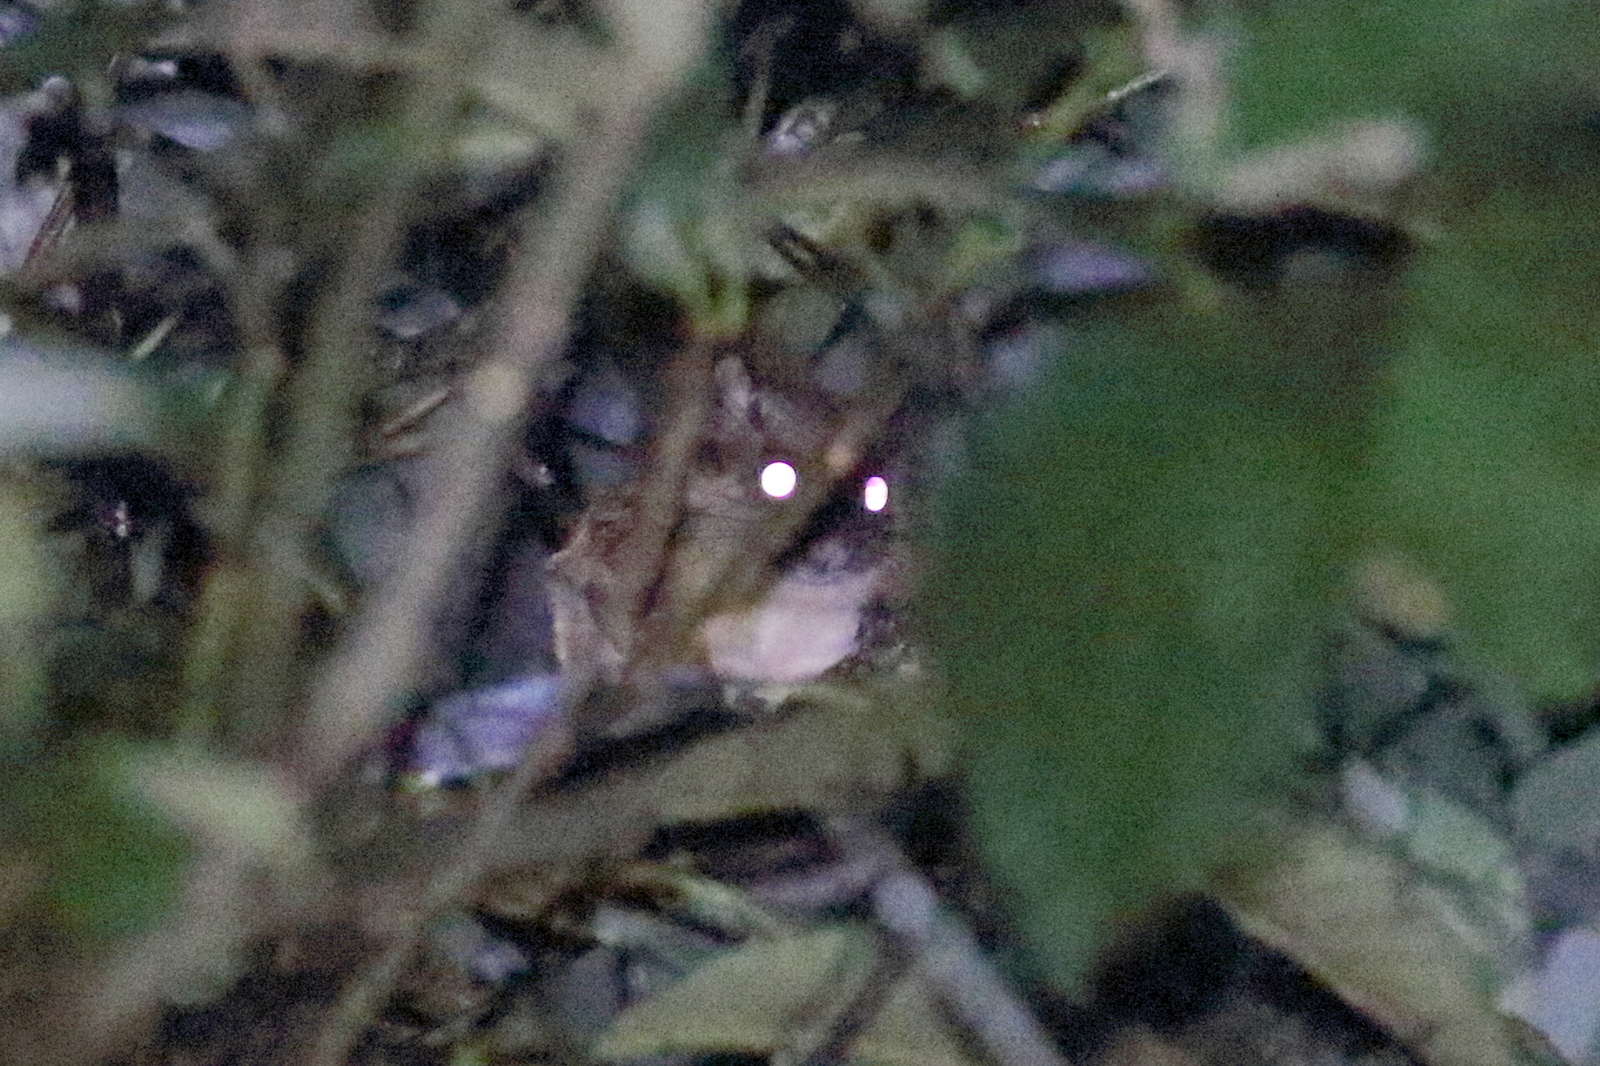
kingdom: Animalia
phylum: Chordata
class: Mammalia
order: Rodentia
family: Sciuridae
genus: Belomys
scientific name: Belomys pearsonii
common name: Hairy-footed flying squirrel
